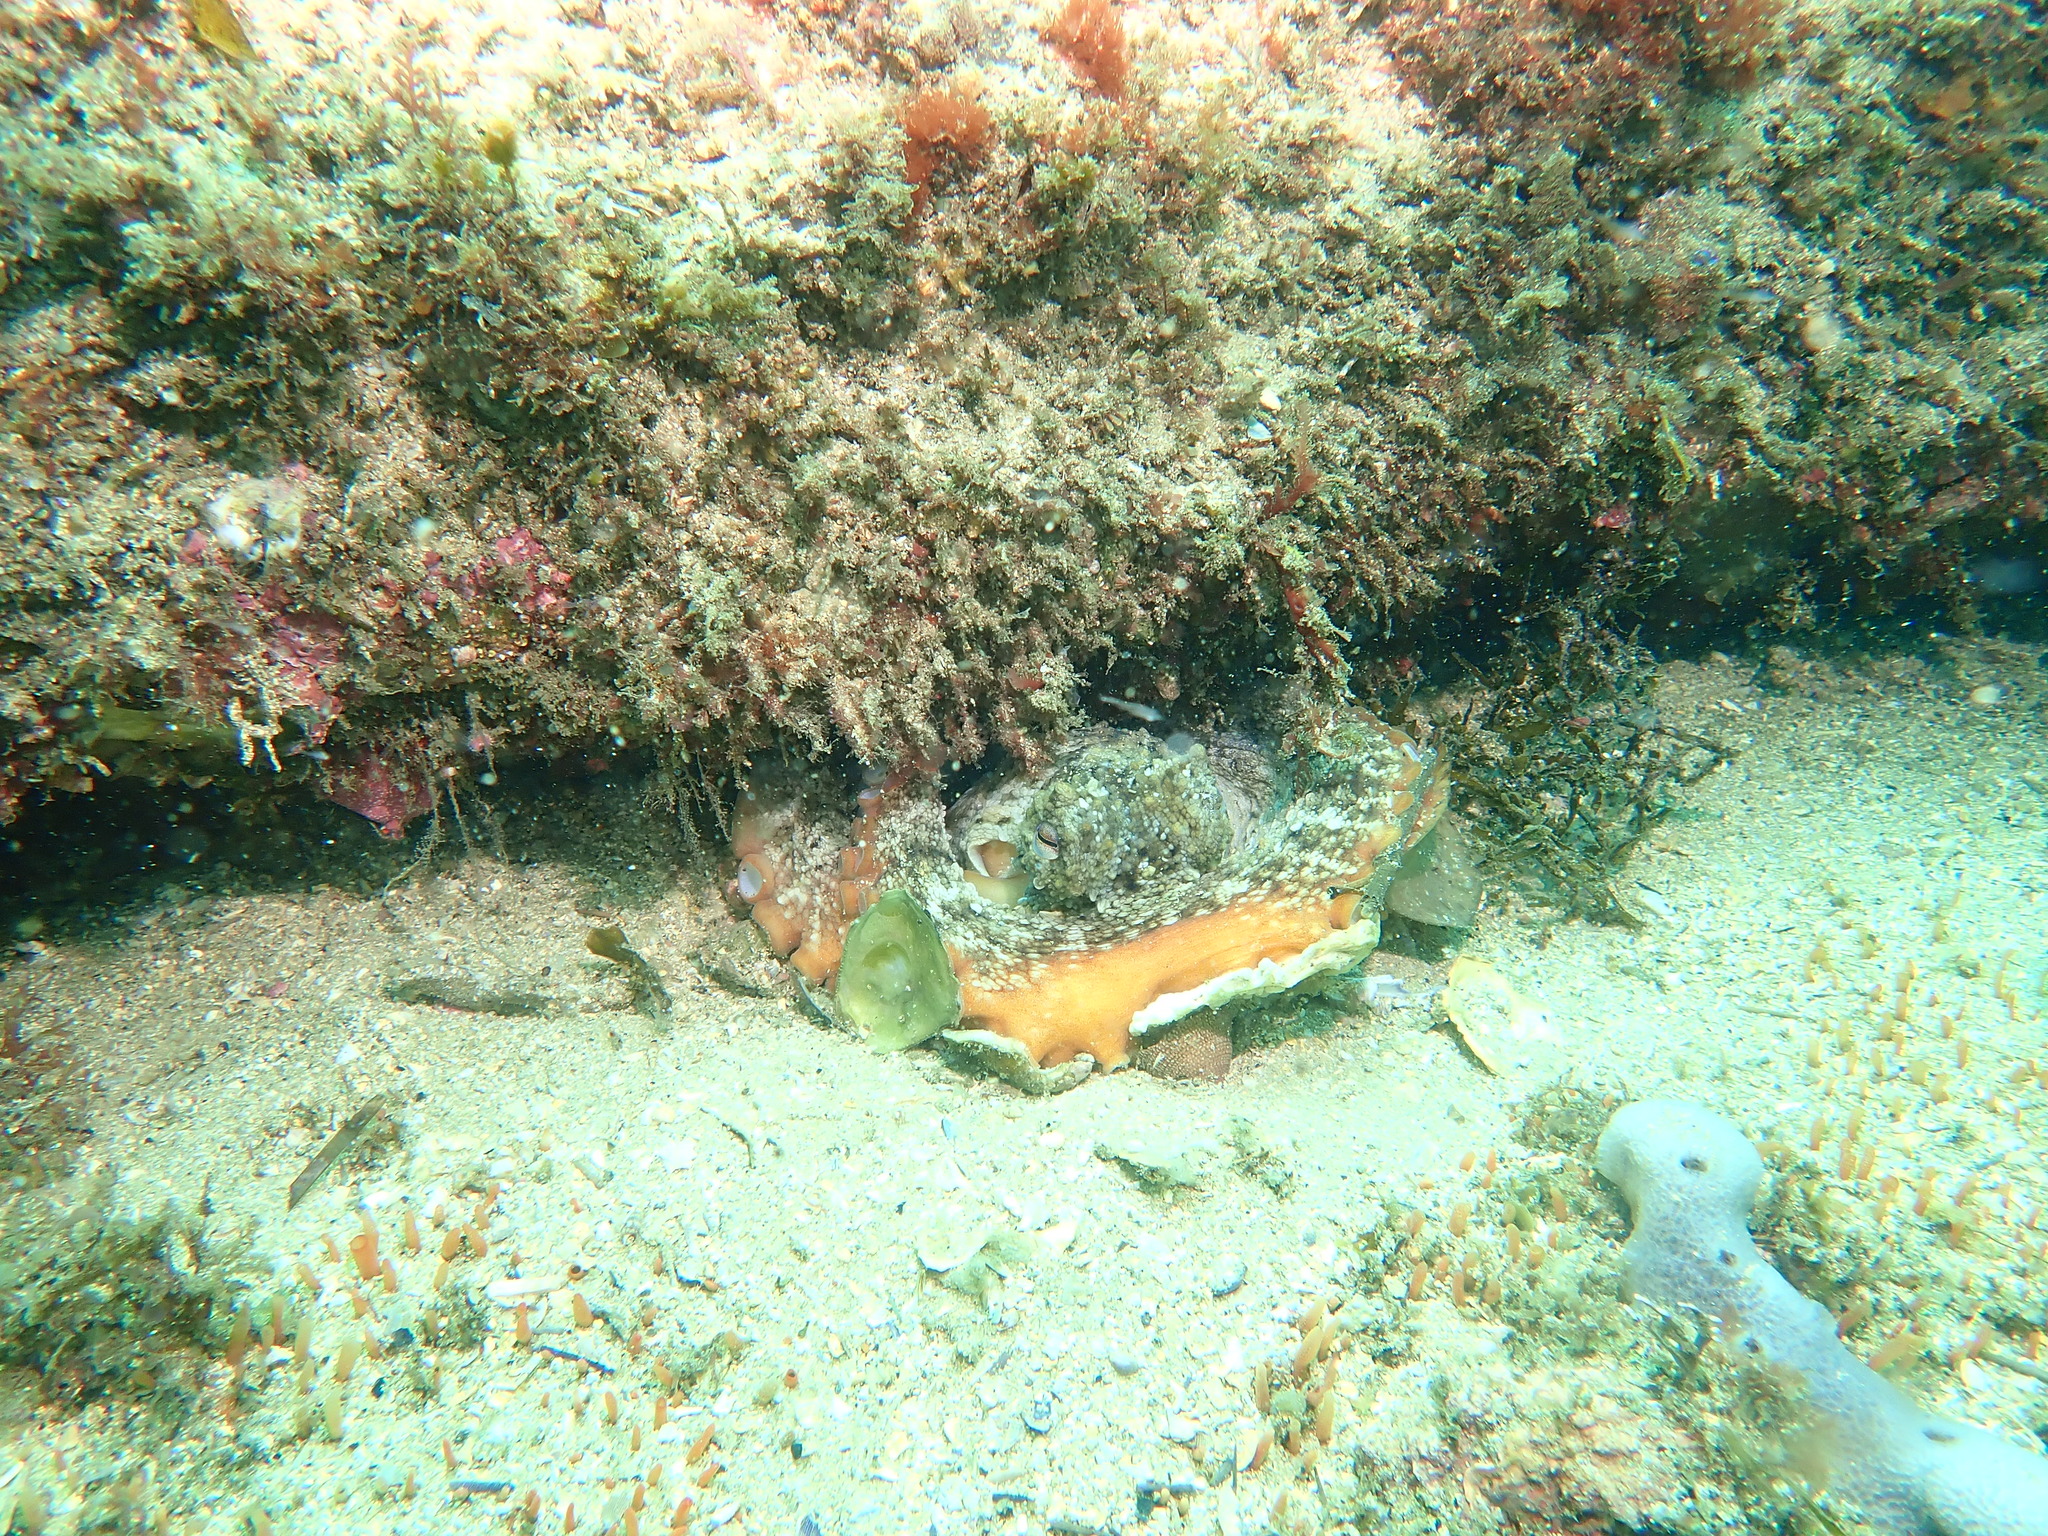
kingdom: Animalia
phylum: Mollusca
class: Cephalopoda
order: Octopoda
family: Octopodidae
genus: Octopus
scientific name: Octopus tetricus
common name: Sydney octopus
